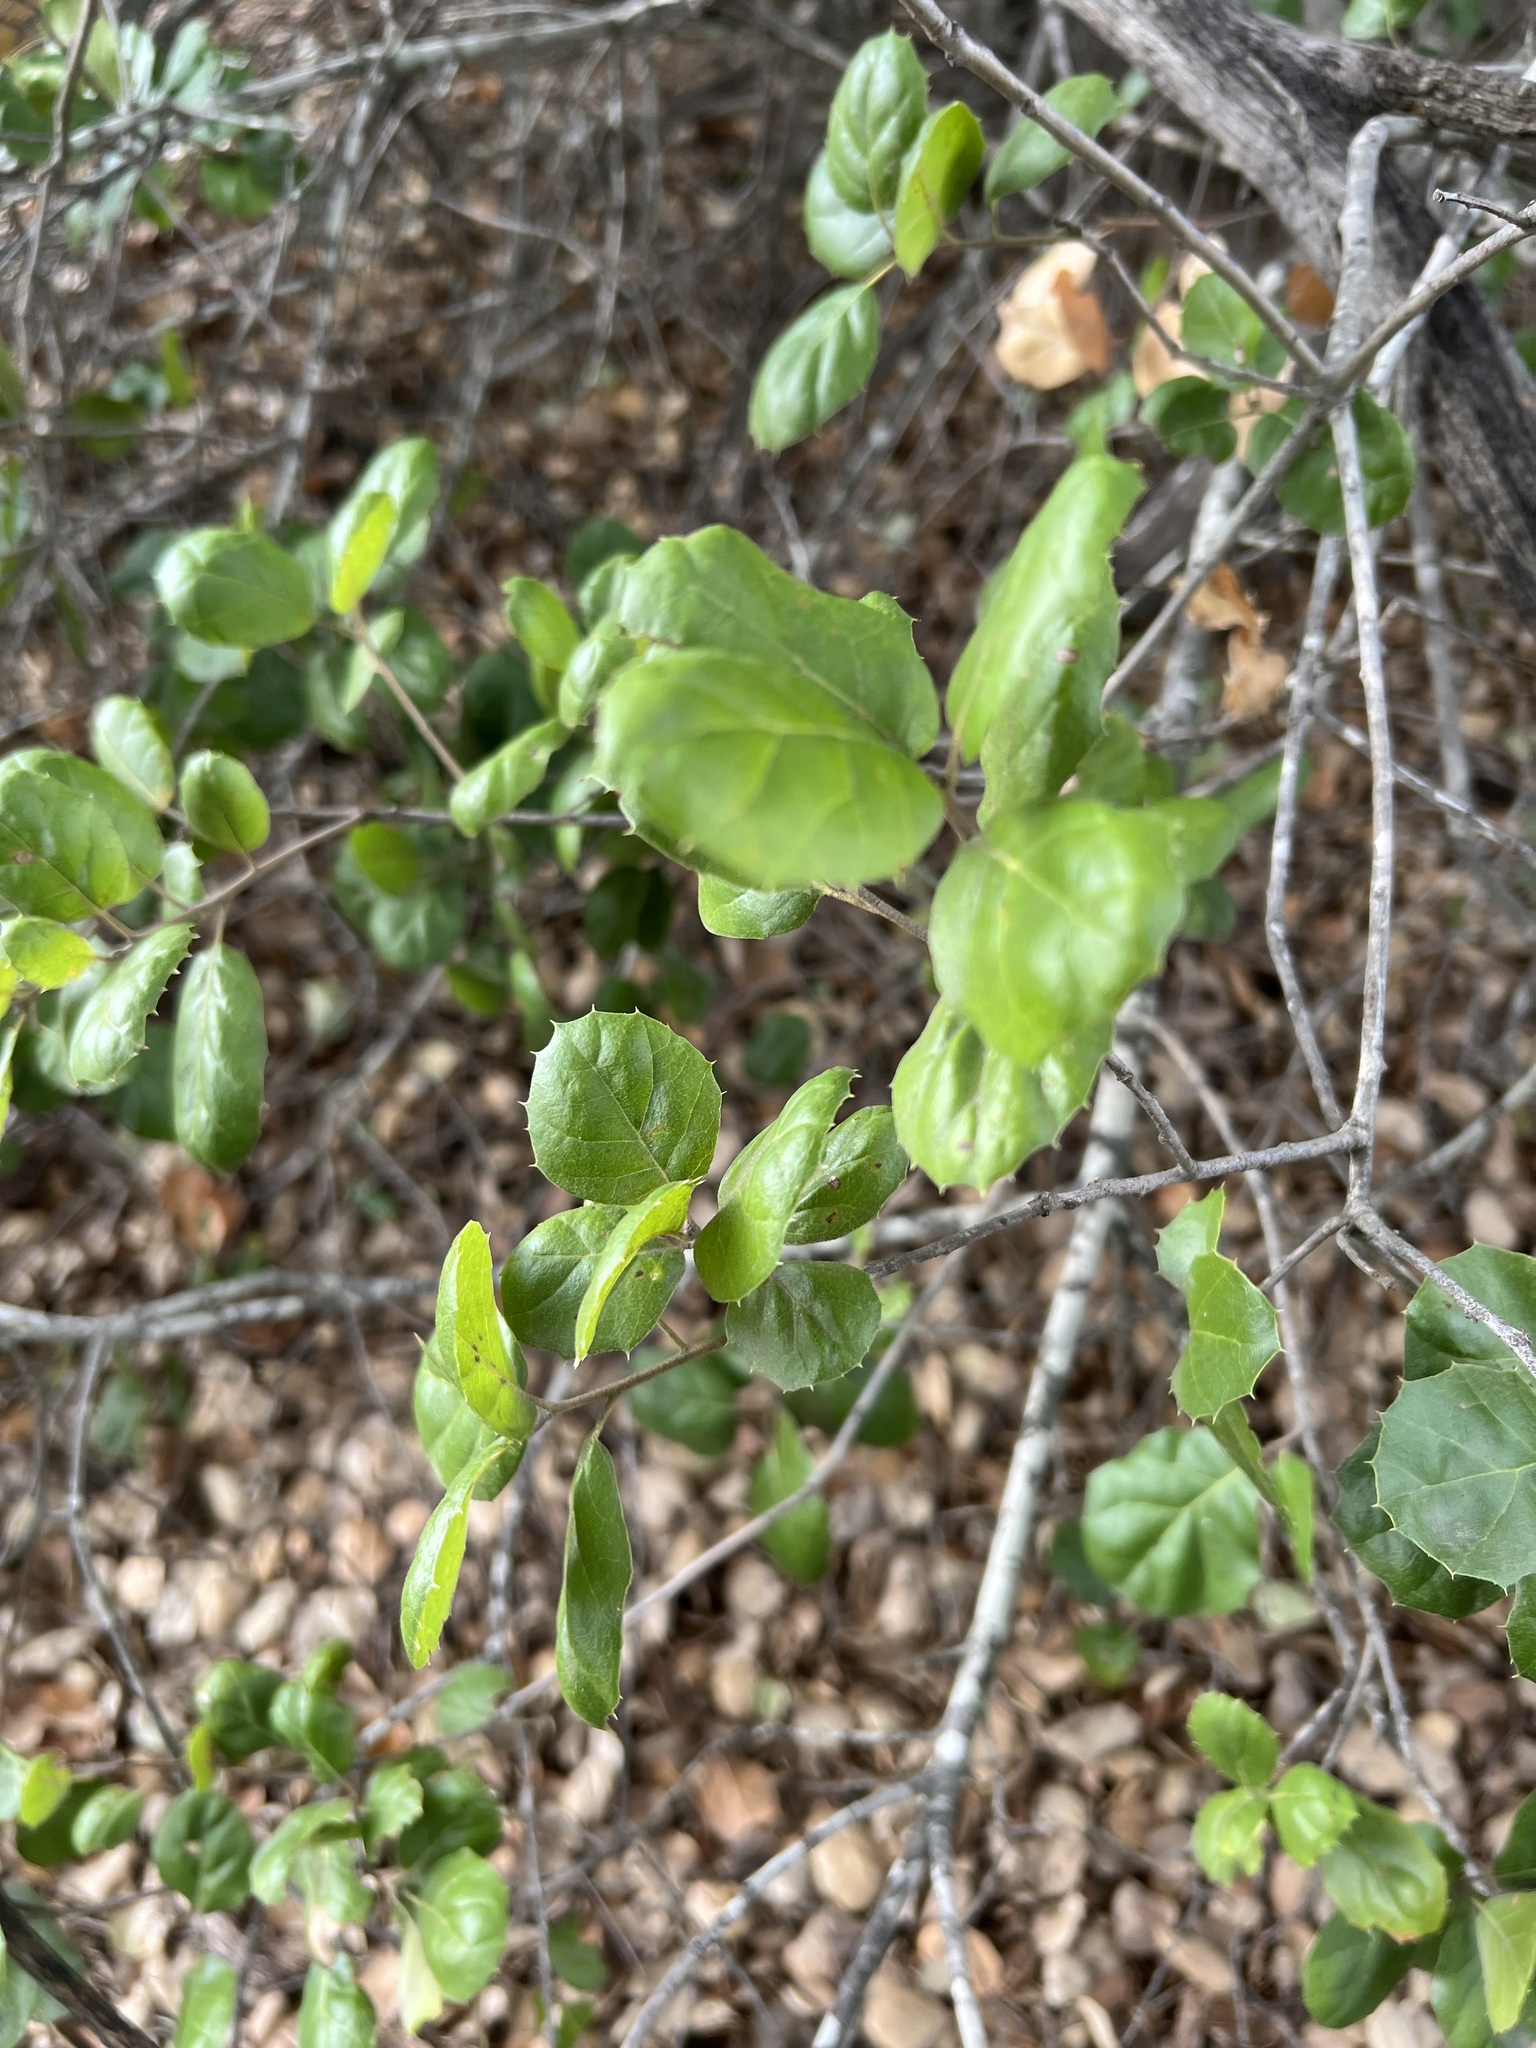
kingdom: Plantae
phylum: Tracheophyta
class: Magnoliopsida
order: Fagales
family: Fagaceae
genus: Quercus
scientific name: Quercus agrifolia
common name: California live oak
